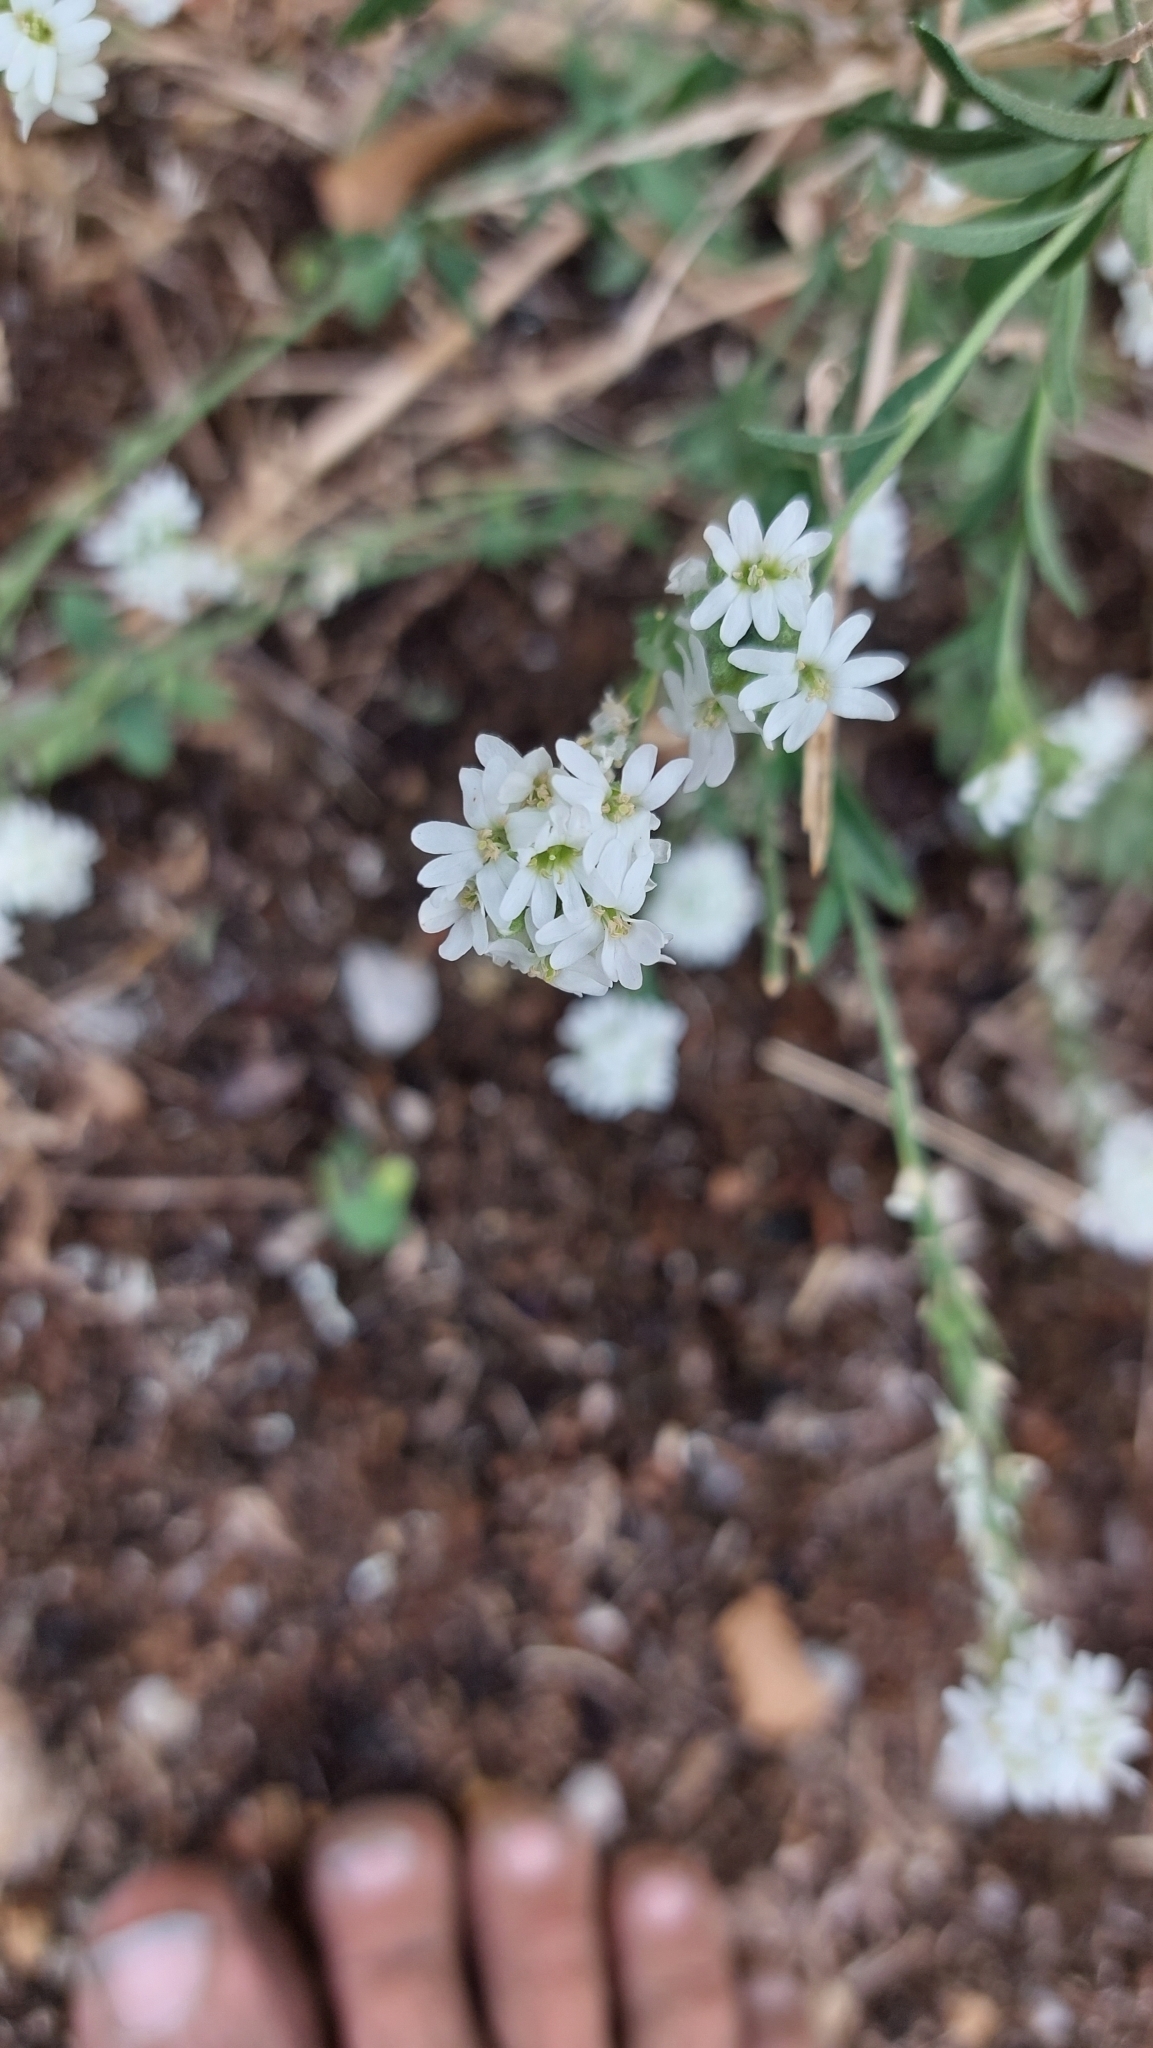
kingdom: Plantae
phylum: Tracheophyta
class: Magnoliopsida
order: Brassicales
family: Brassicaceae
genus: Berteroa
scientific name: Berteroa incana
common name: Hoary alison
